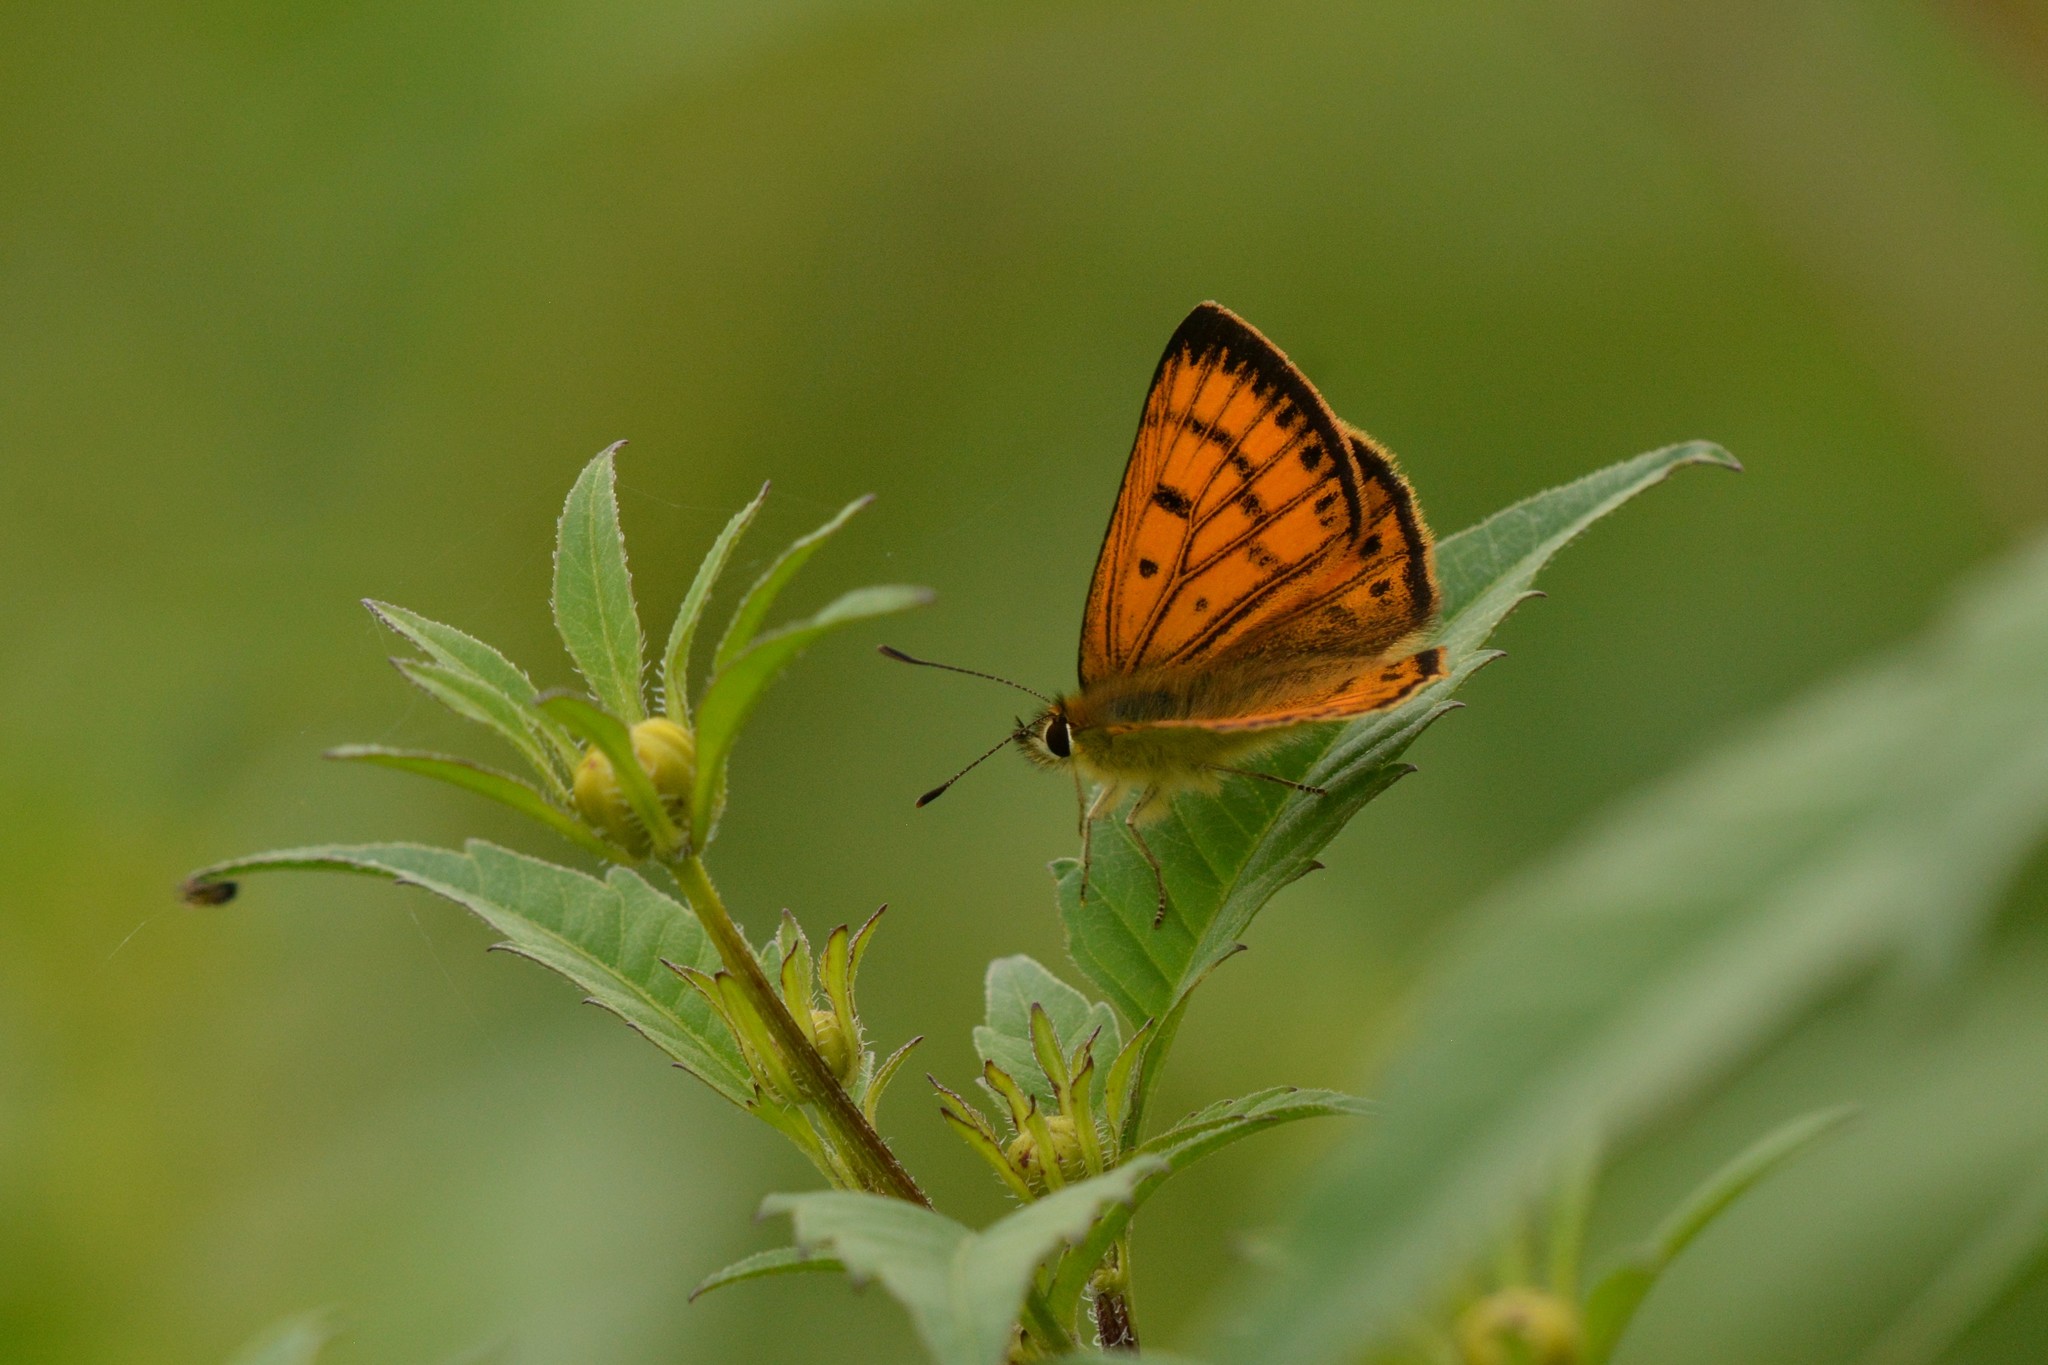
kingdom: Animalia
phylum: Arthropoda
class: Insecta
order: Lepidoptera
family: Lycaenidae
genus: Lycaena
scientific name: Lycaena salustius
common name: North island coastal copper
